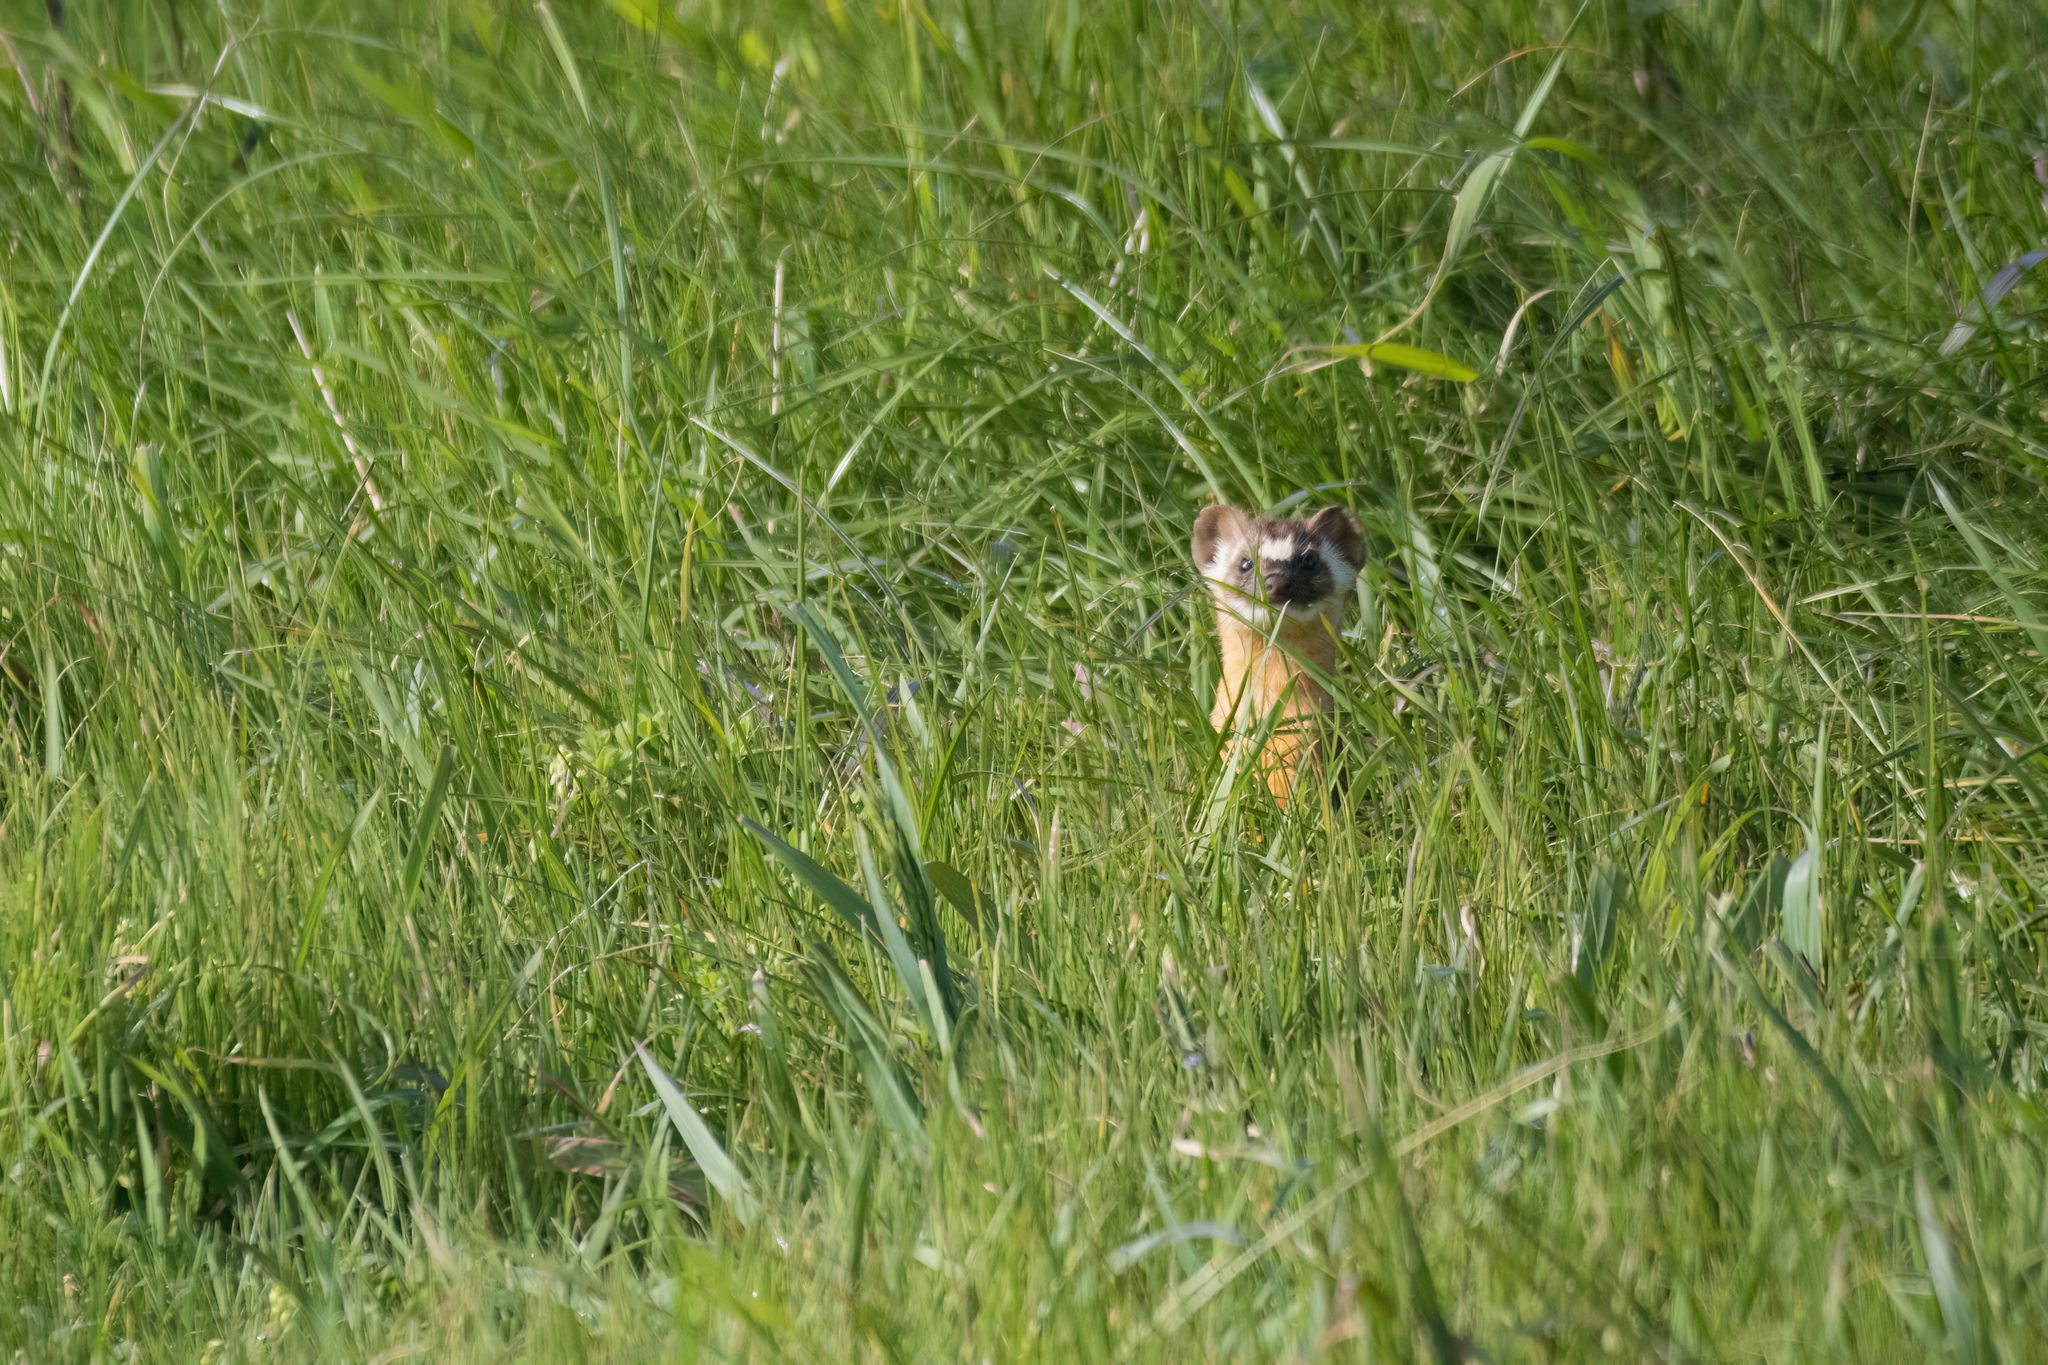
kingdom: Animalia
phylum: Chordata
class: Mammalia
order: Carnivora
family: Mustelidae
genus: Mustela
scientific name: Mustela
